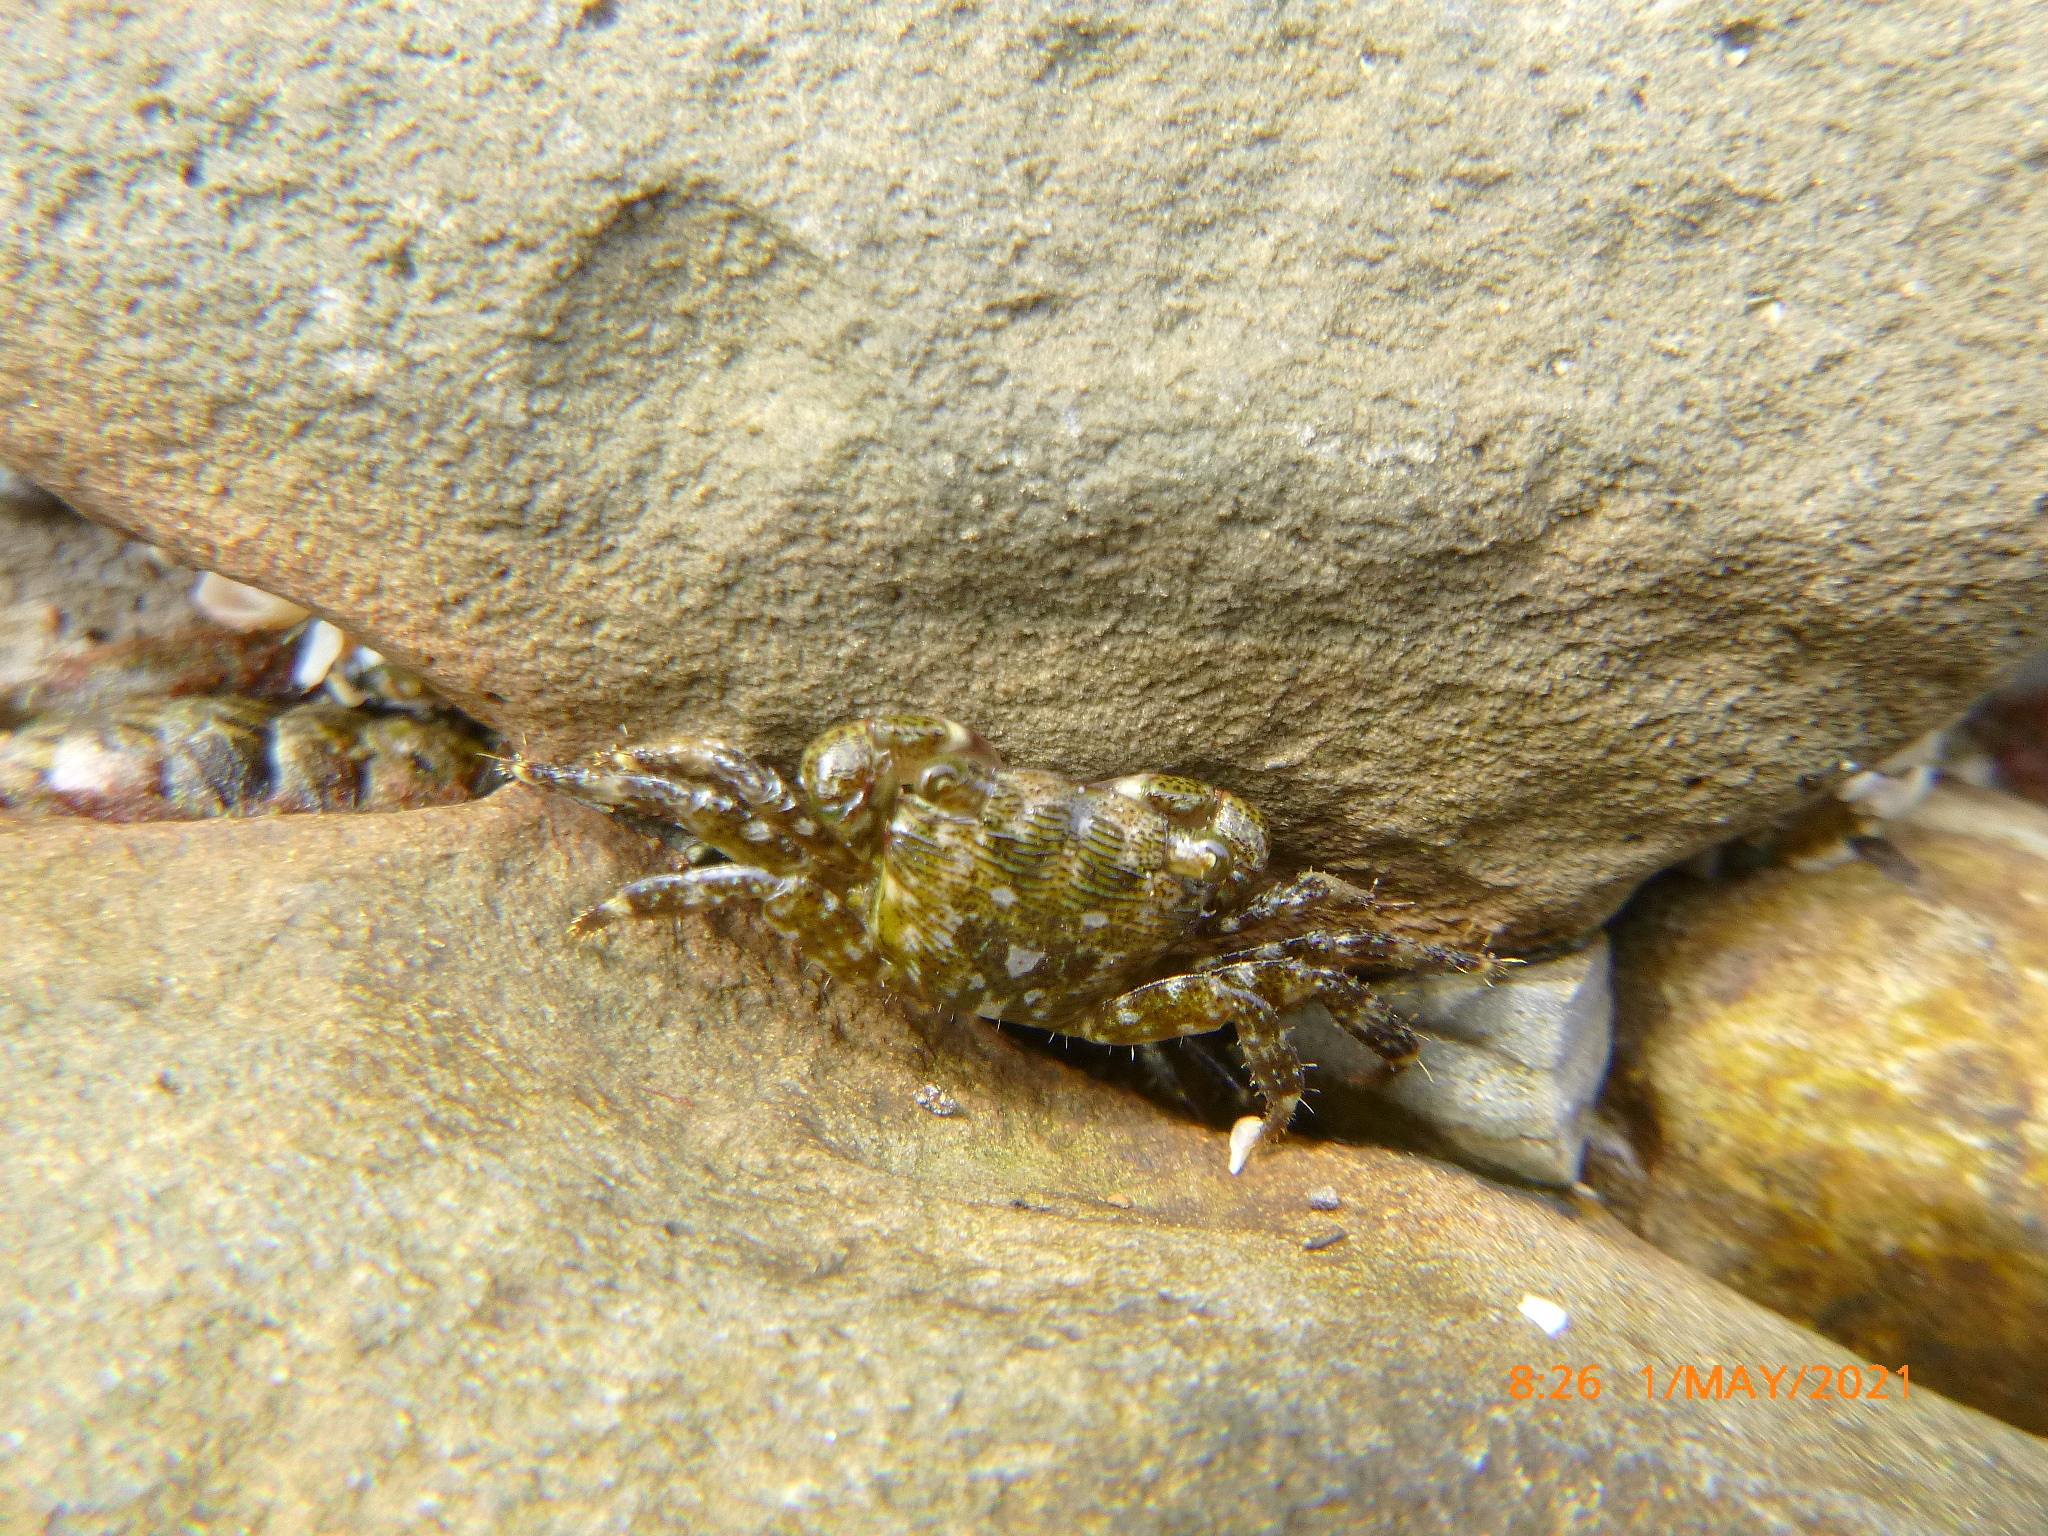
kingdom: Animalia
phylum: Arthropoda
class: Malacostraca
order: Decapoda
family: Grapsidae
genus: Pachygrapsus
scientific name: Pachygrapsus crassipes
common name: Striped shore crab
